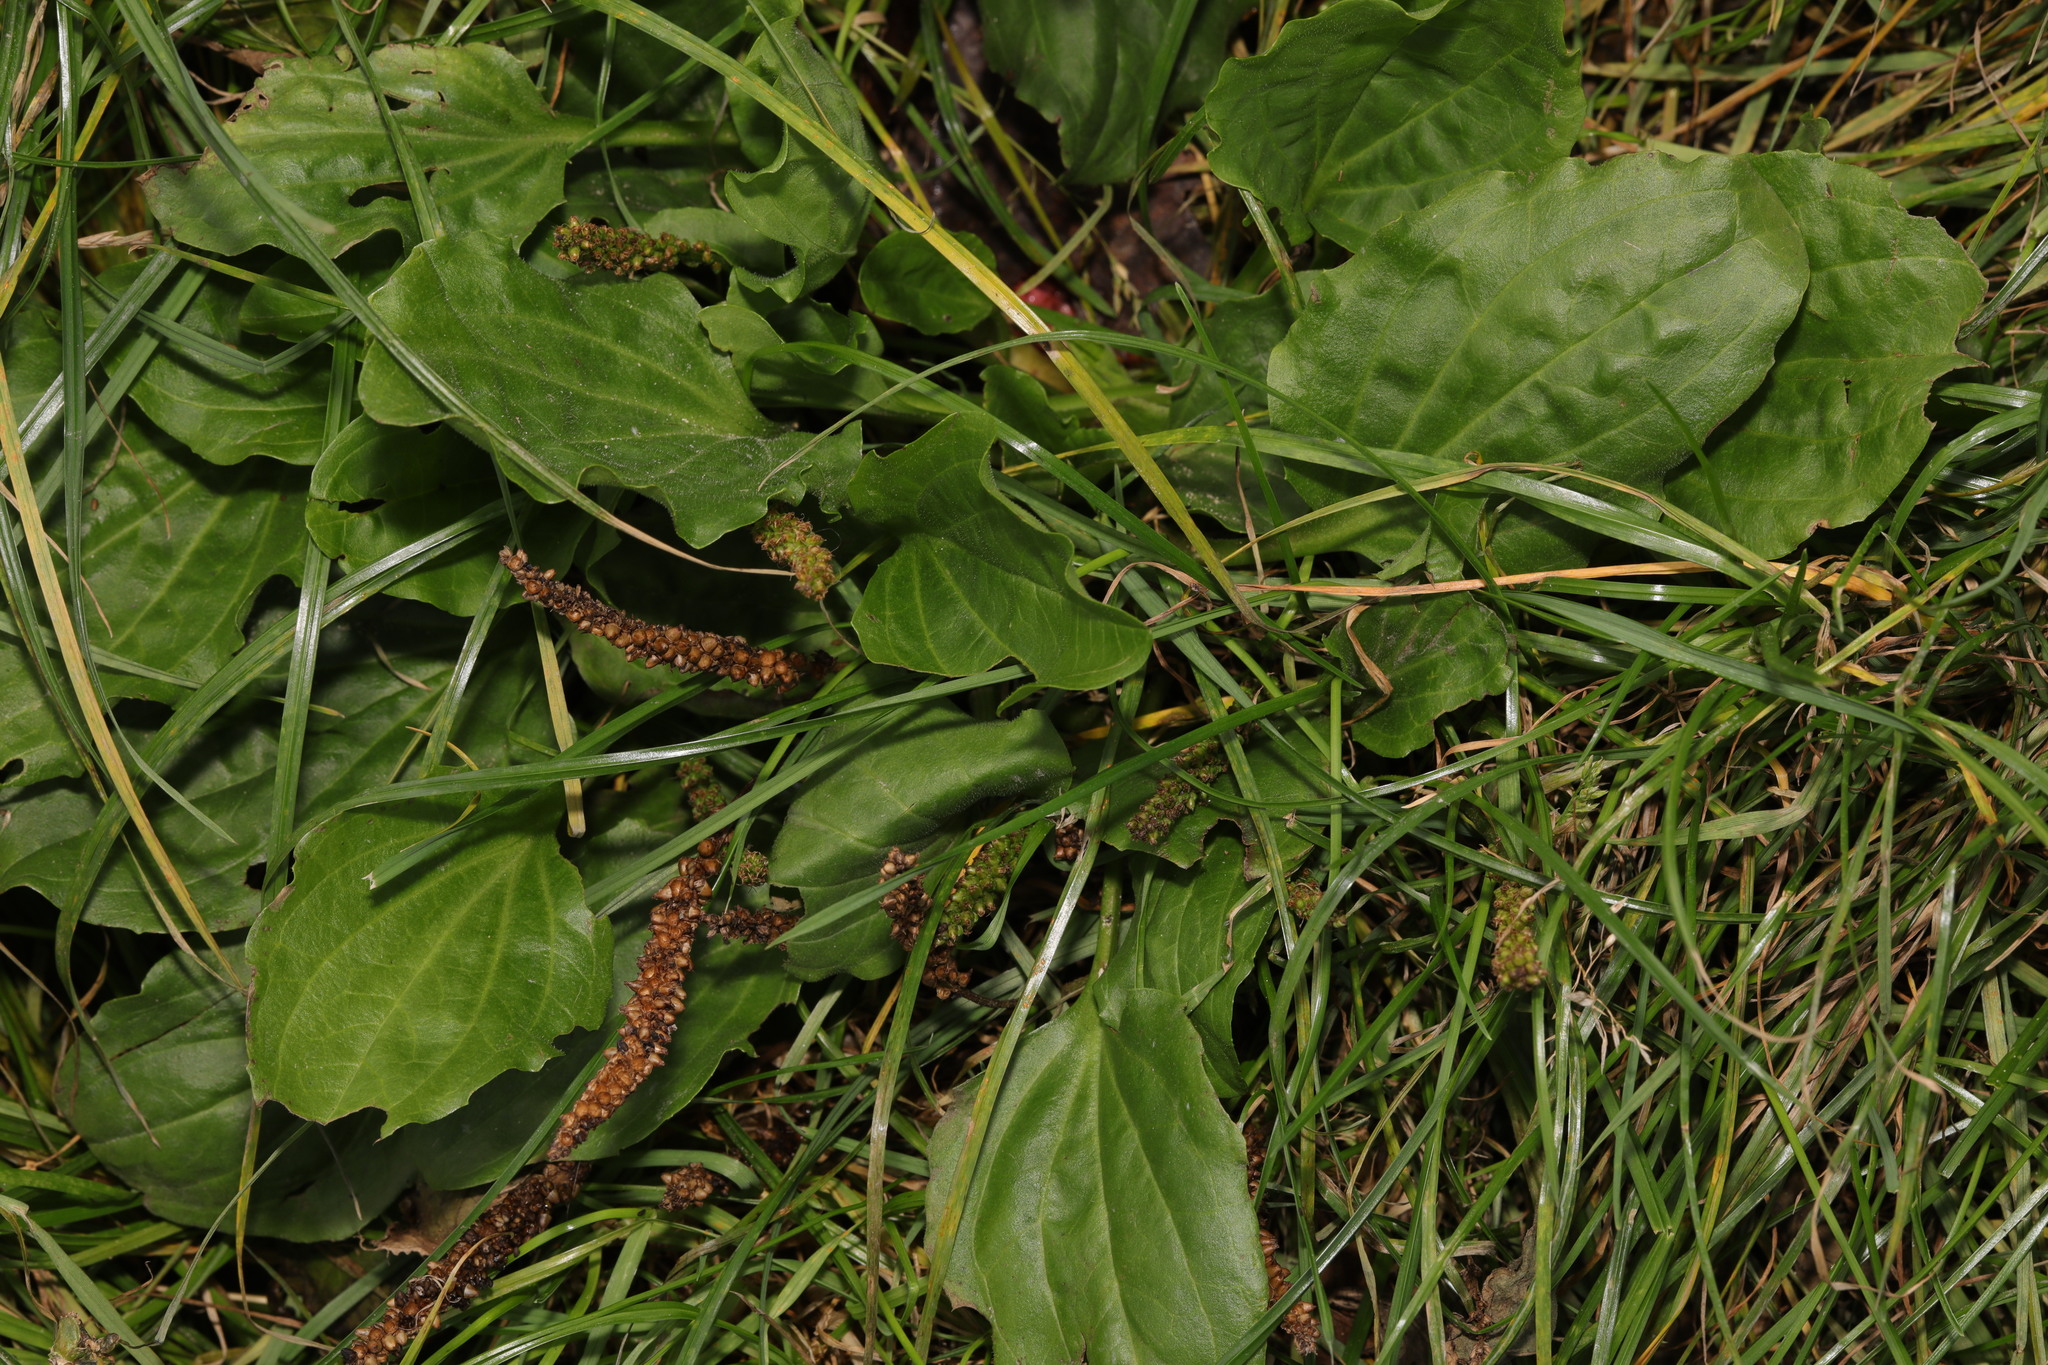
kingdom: Plantae
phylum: Tracheophyta
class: Magnoliopsida
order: Lamiales
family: Plantaginaceae
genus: Plantago
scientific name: Plantago major
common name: Common plantain
